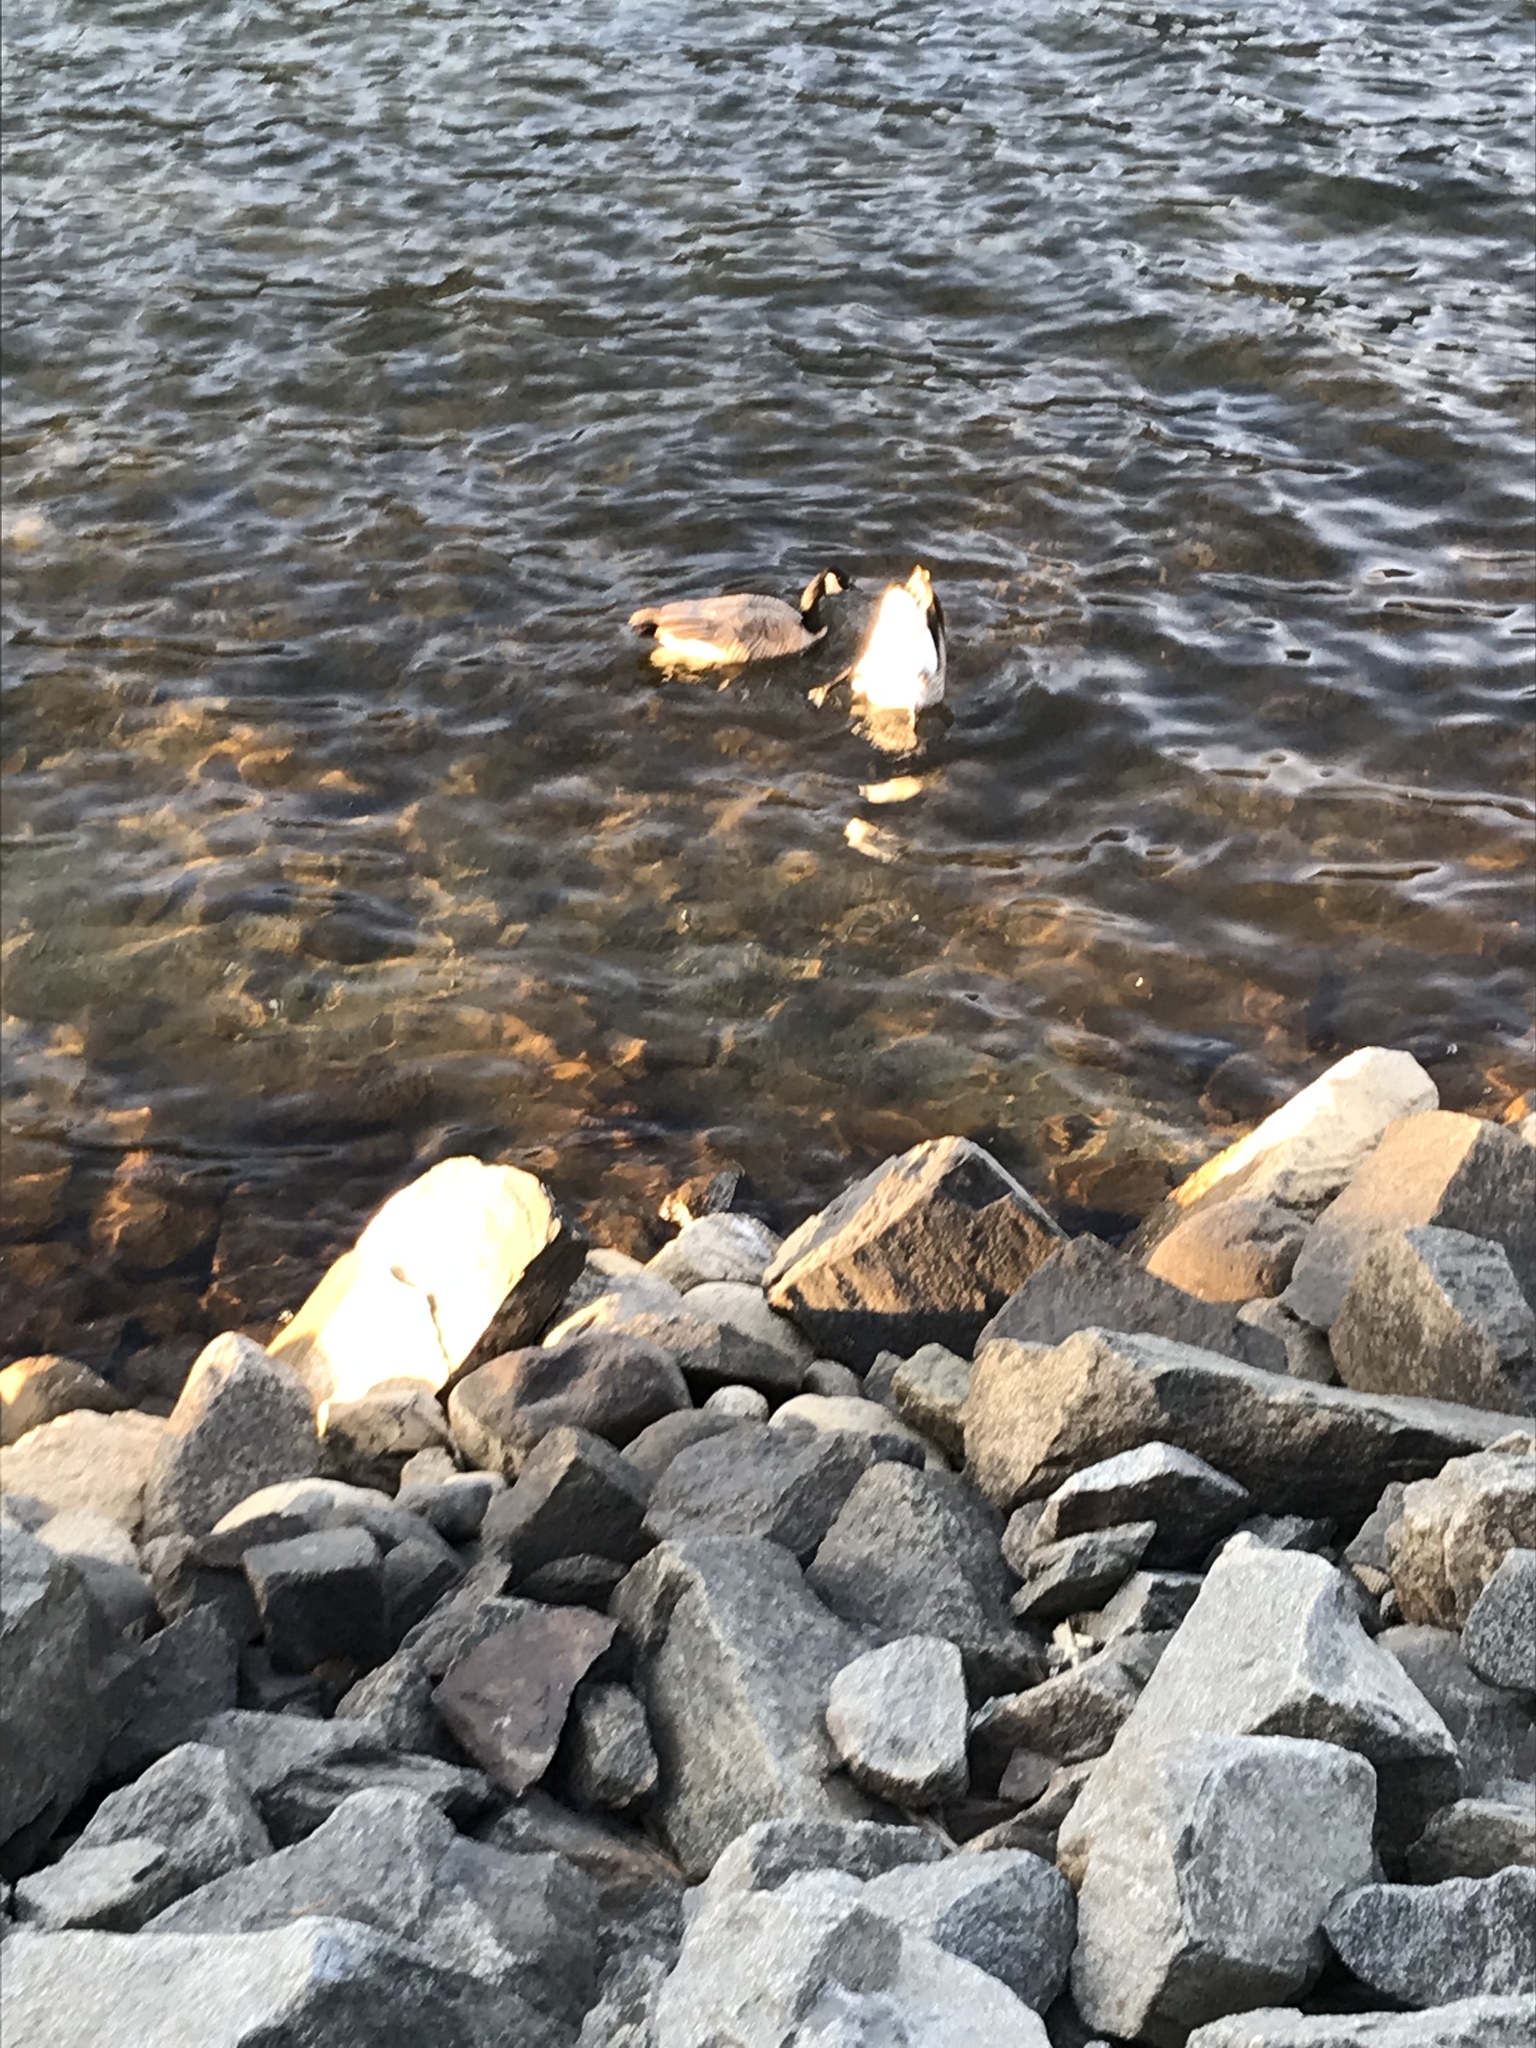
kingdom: Animalia
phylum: Chordata
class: Aves
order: Anseriformes
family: Anatidae
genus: Branta
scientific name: Branta canadensis
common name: Canada goose
